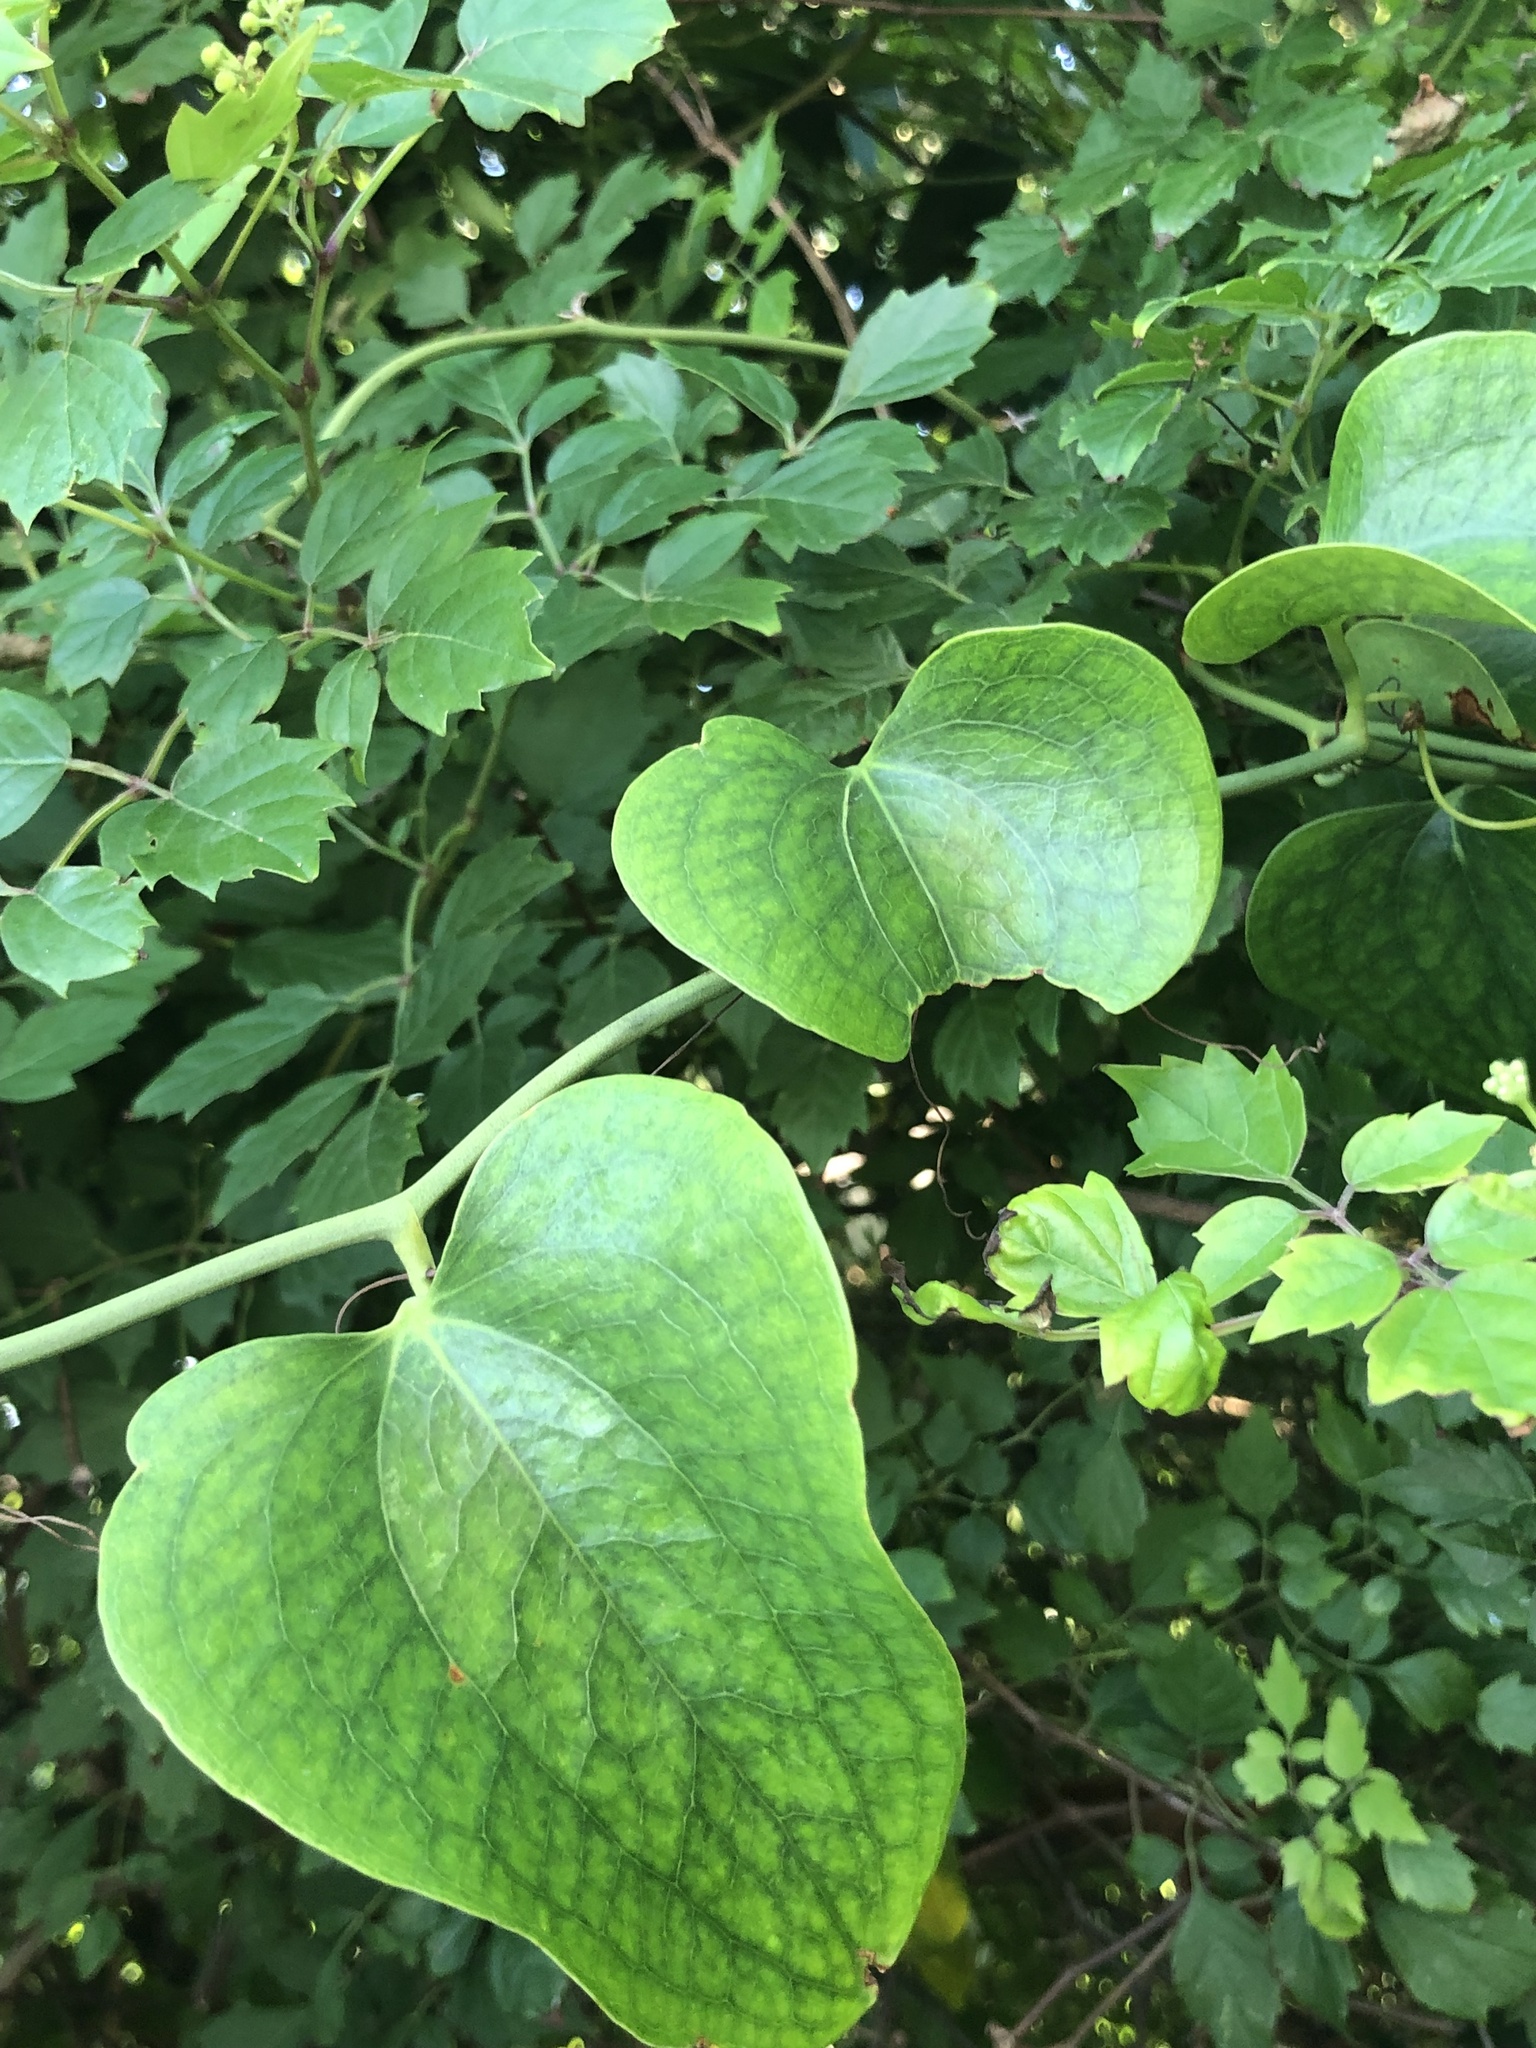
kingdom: Plantae
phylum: Tracheophyta
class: Liliopsida
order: Liliales
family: Smilacaceae
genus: Smilax
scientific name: Smilax bona-nox
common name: Catbrier
